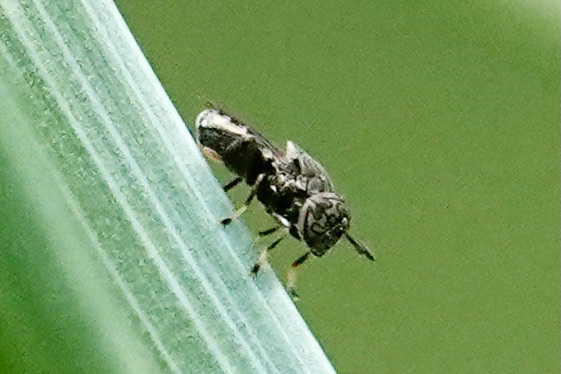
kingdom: Animalia
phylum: Arthropoda
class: Insecta
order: Diptera
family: Syrphidae
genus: Orthonevra
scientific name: Orthonevra nitida
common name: Wavy mucksucker
